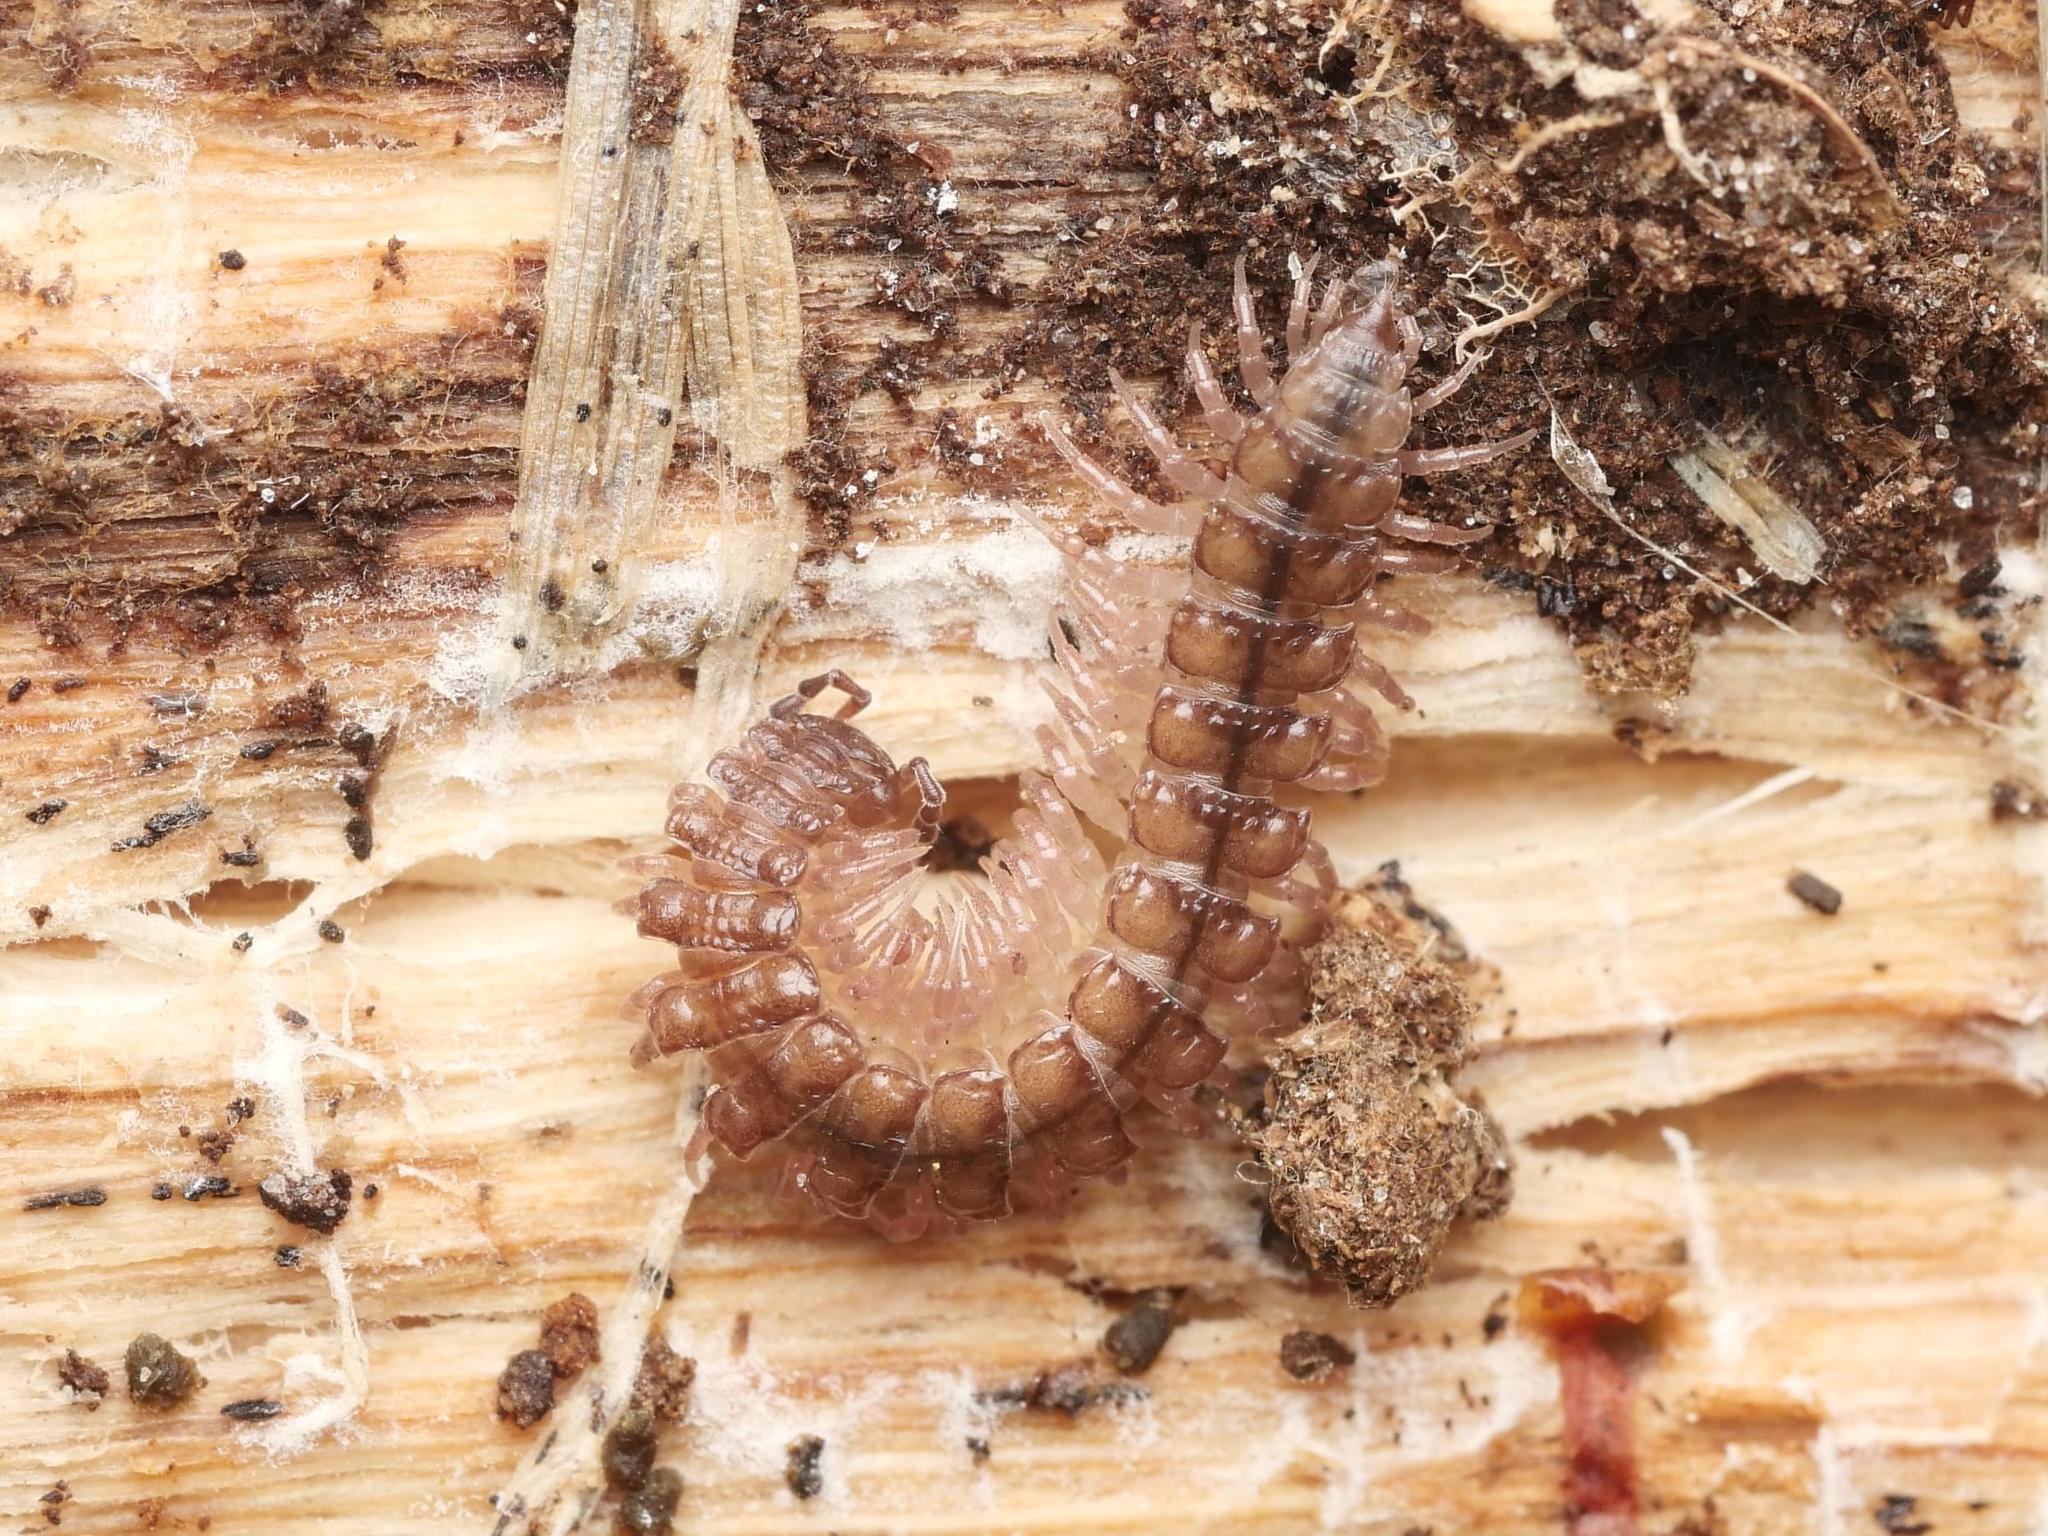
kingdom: Animalia
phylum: Arthropoda
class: Diplopoda
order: Polydesmida
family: Polydesmidae
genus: Polydesmus
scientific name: Polydesmus angustus
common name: Flat millipede
